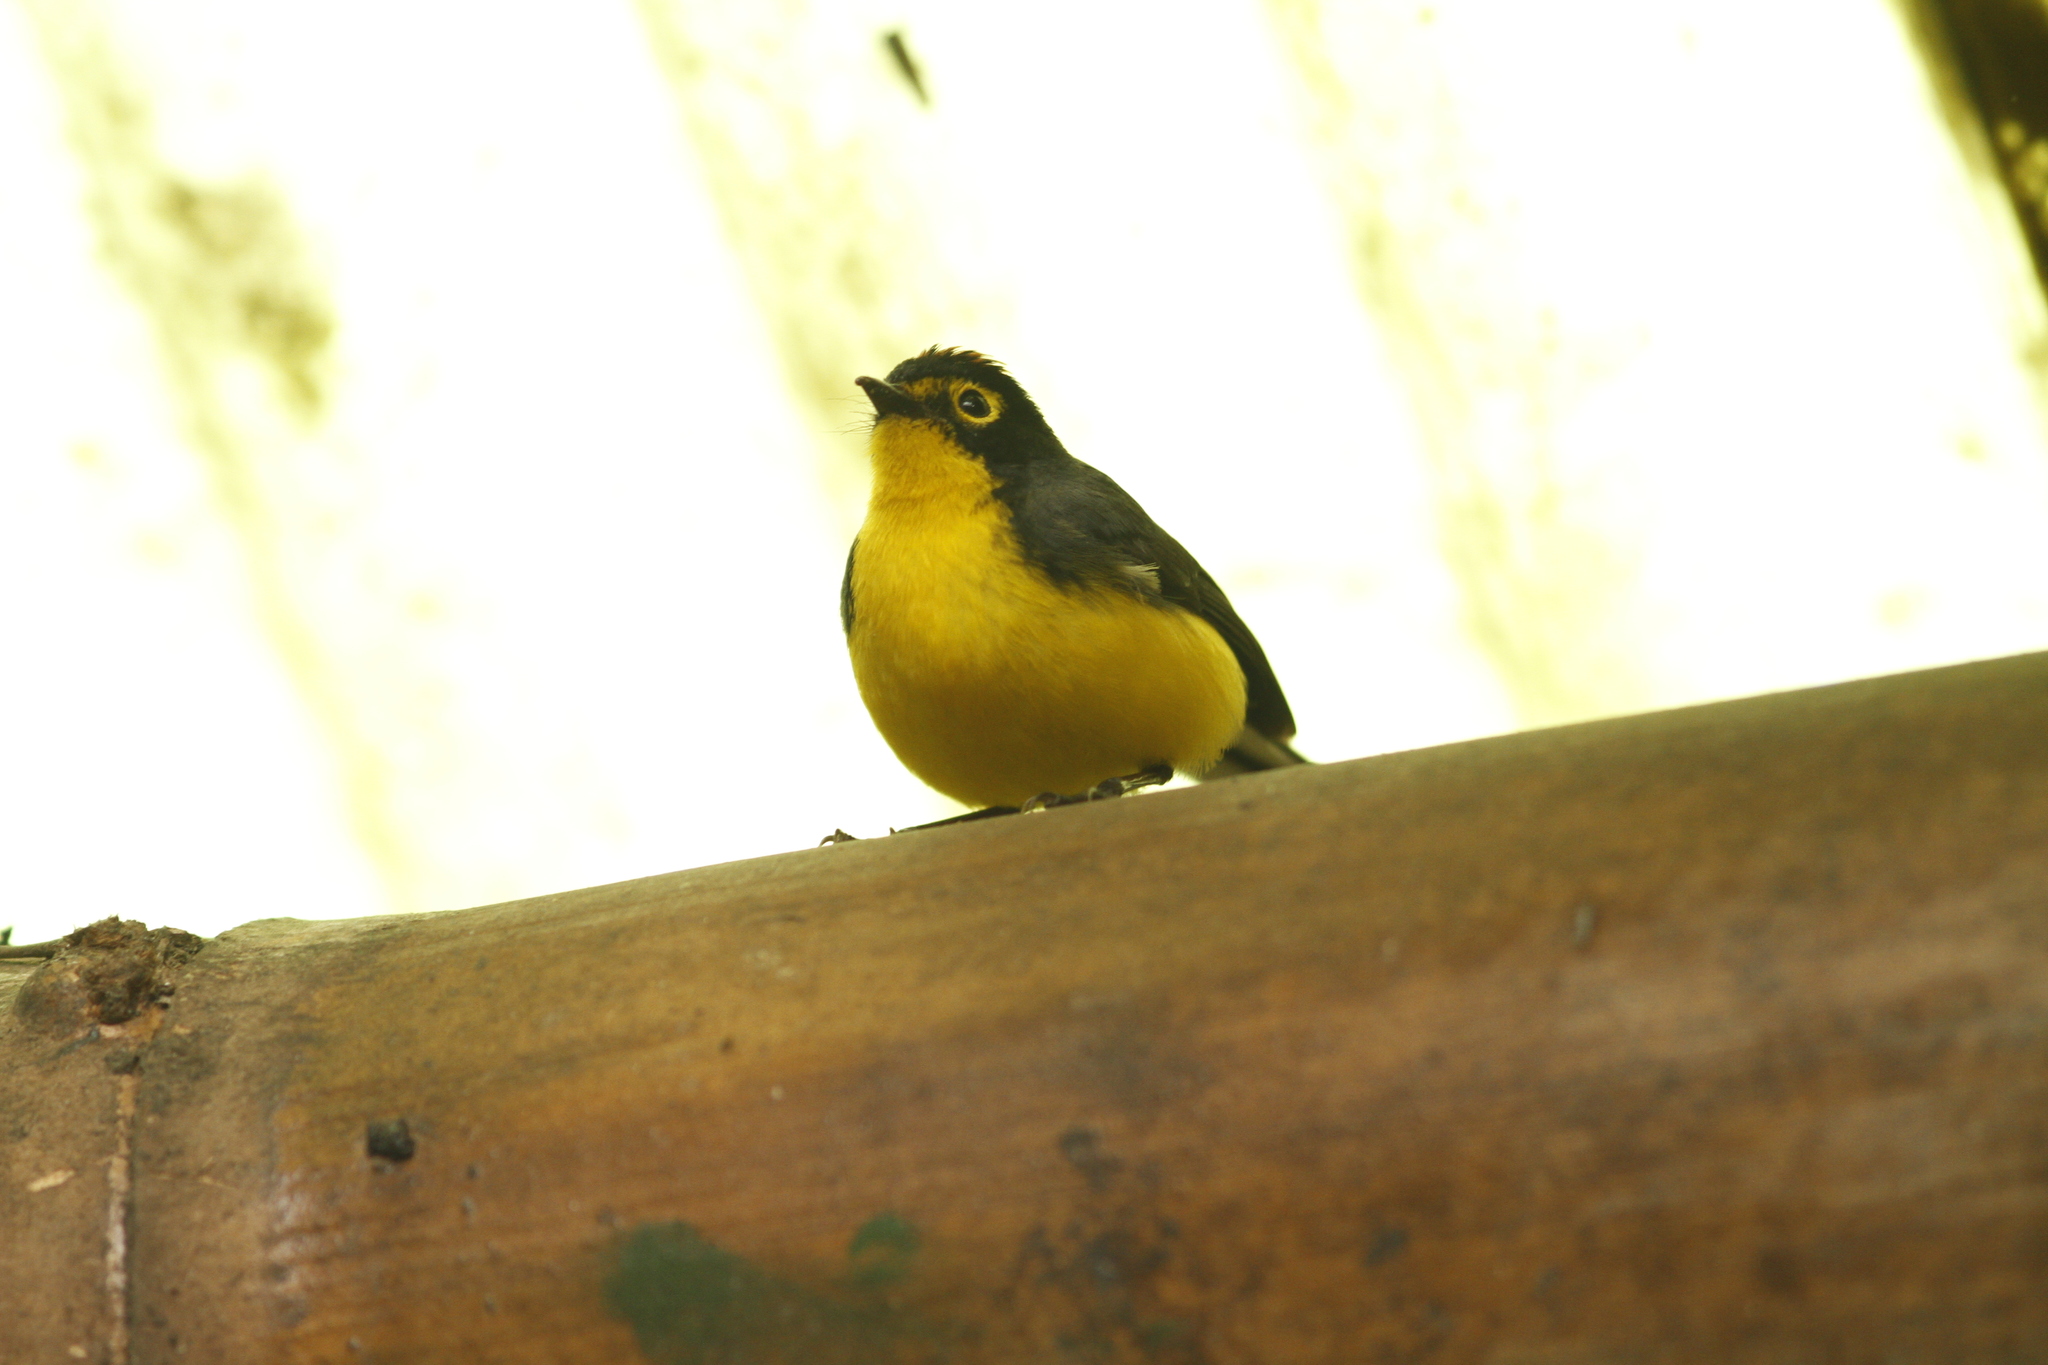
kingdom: Animalia
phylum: Chordata
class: Aves
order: Passeriformes
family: Parulidae
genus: Myioborus
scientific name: Myioborus melanocephalus
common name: Spectacled whitestart
